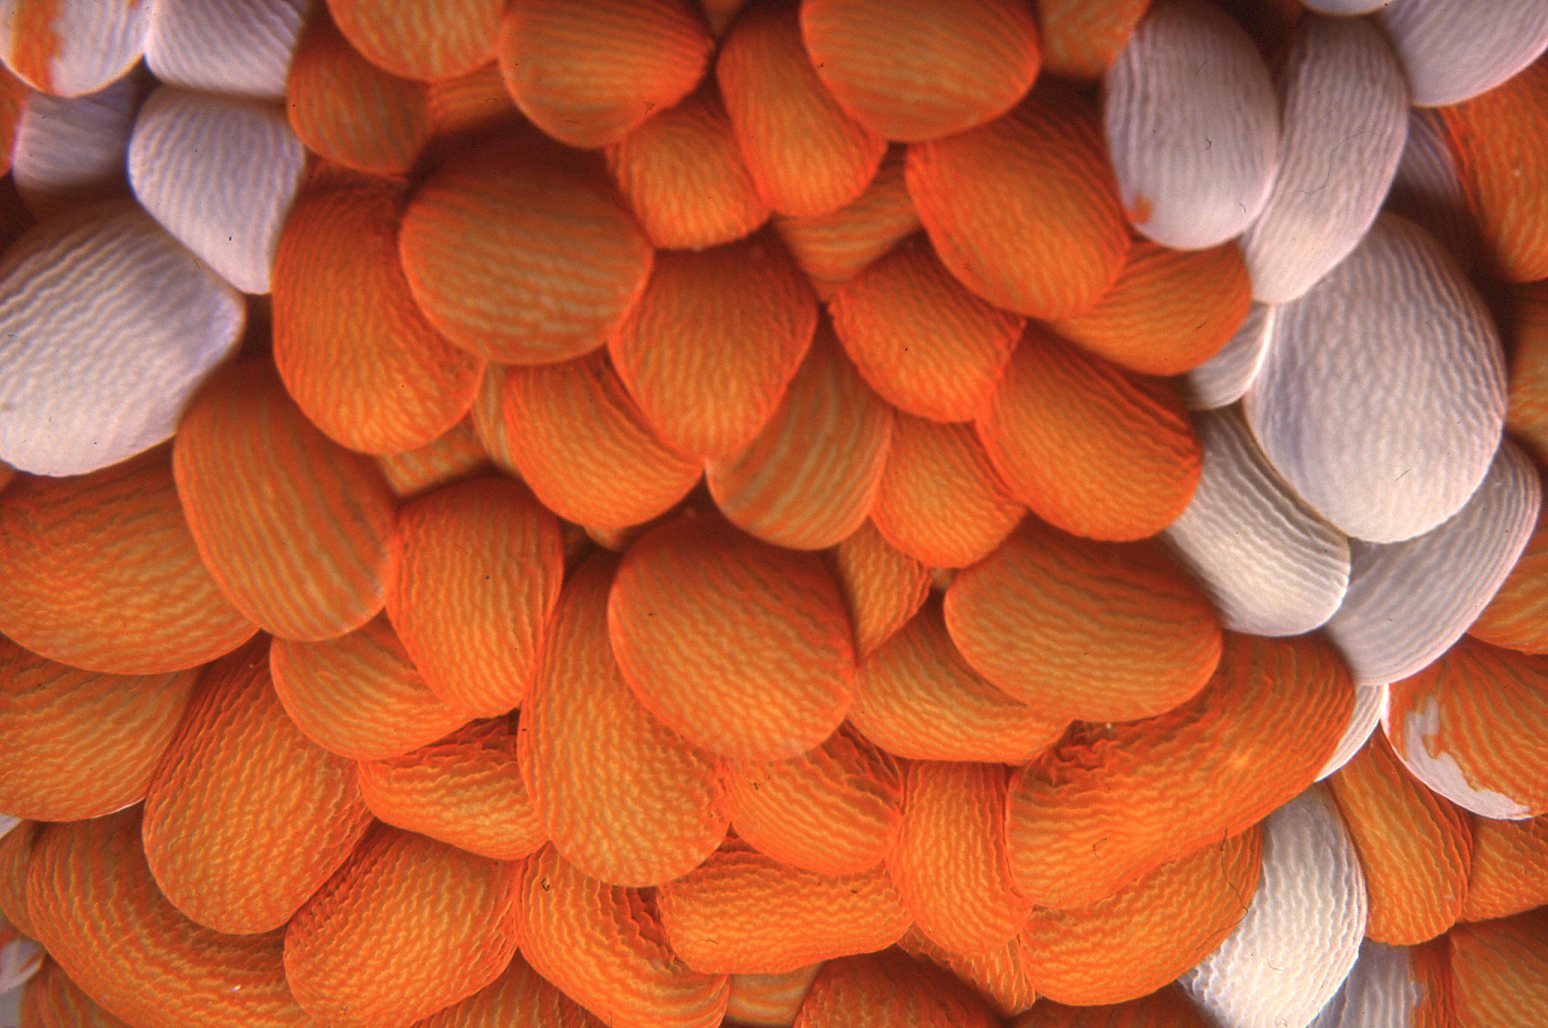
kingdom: Animalia
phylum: Cnidaria
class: Anthozoa
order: Actiniaria
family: Actiniidae
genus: Phlyctenactis
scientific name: Phlyctenactis tuberculosa
